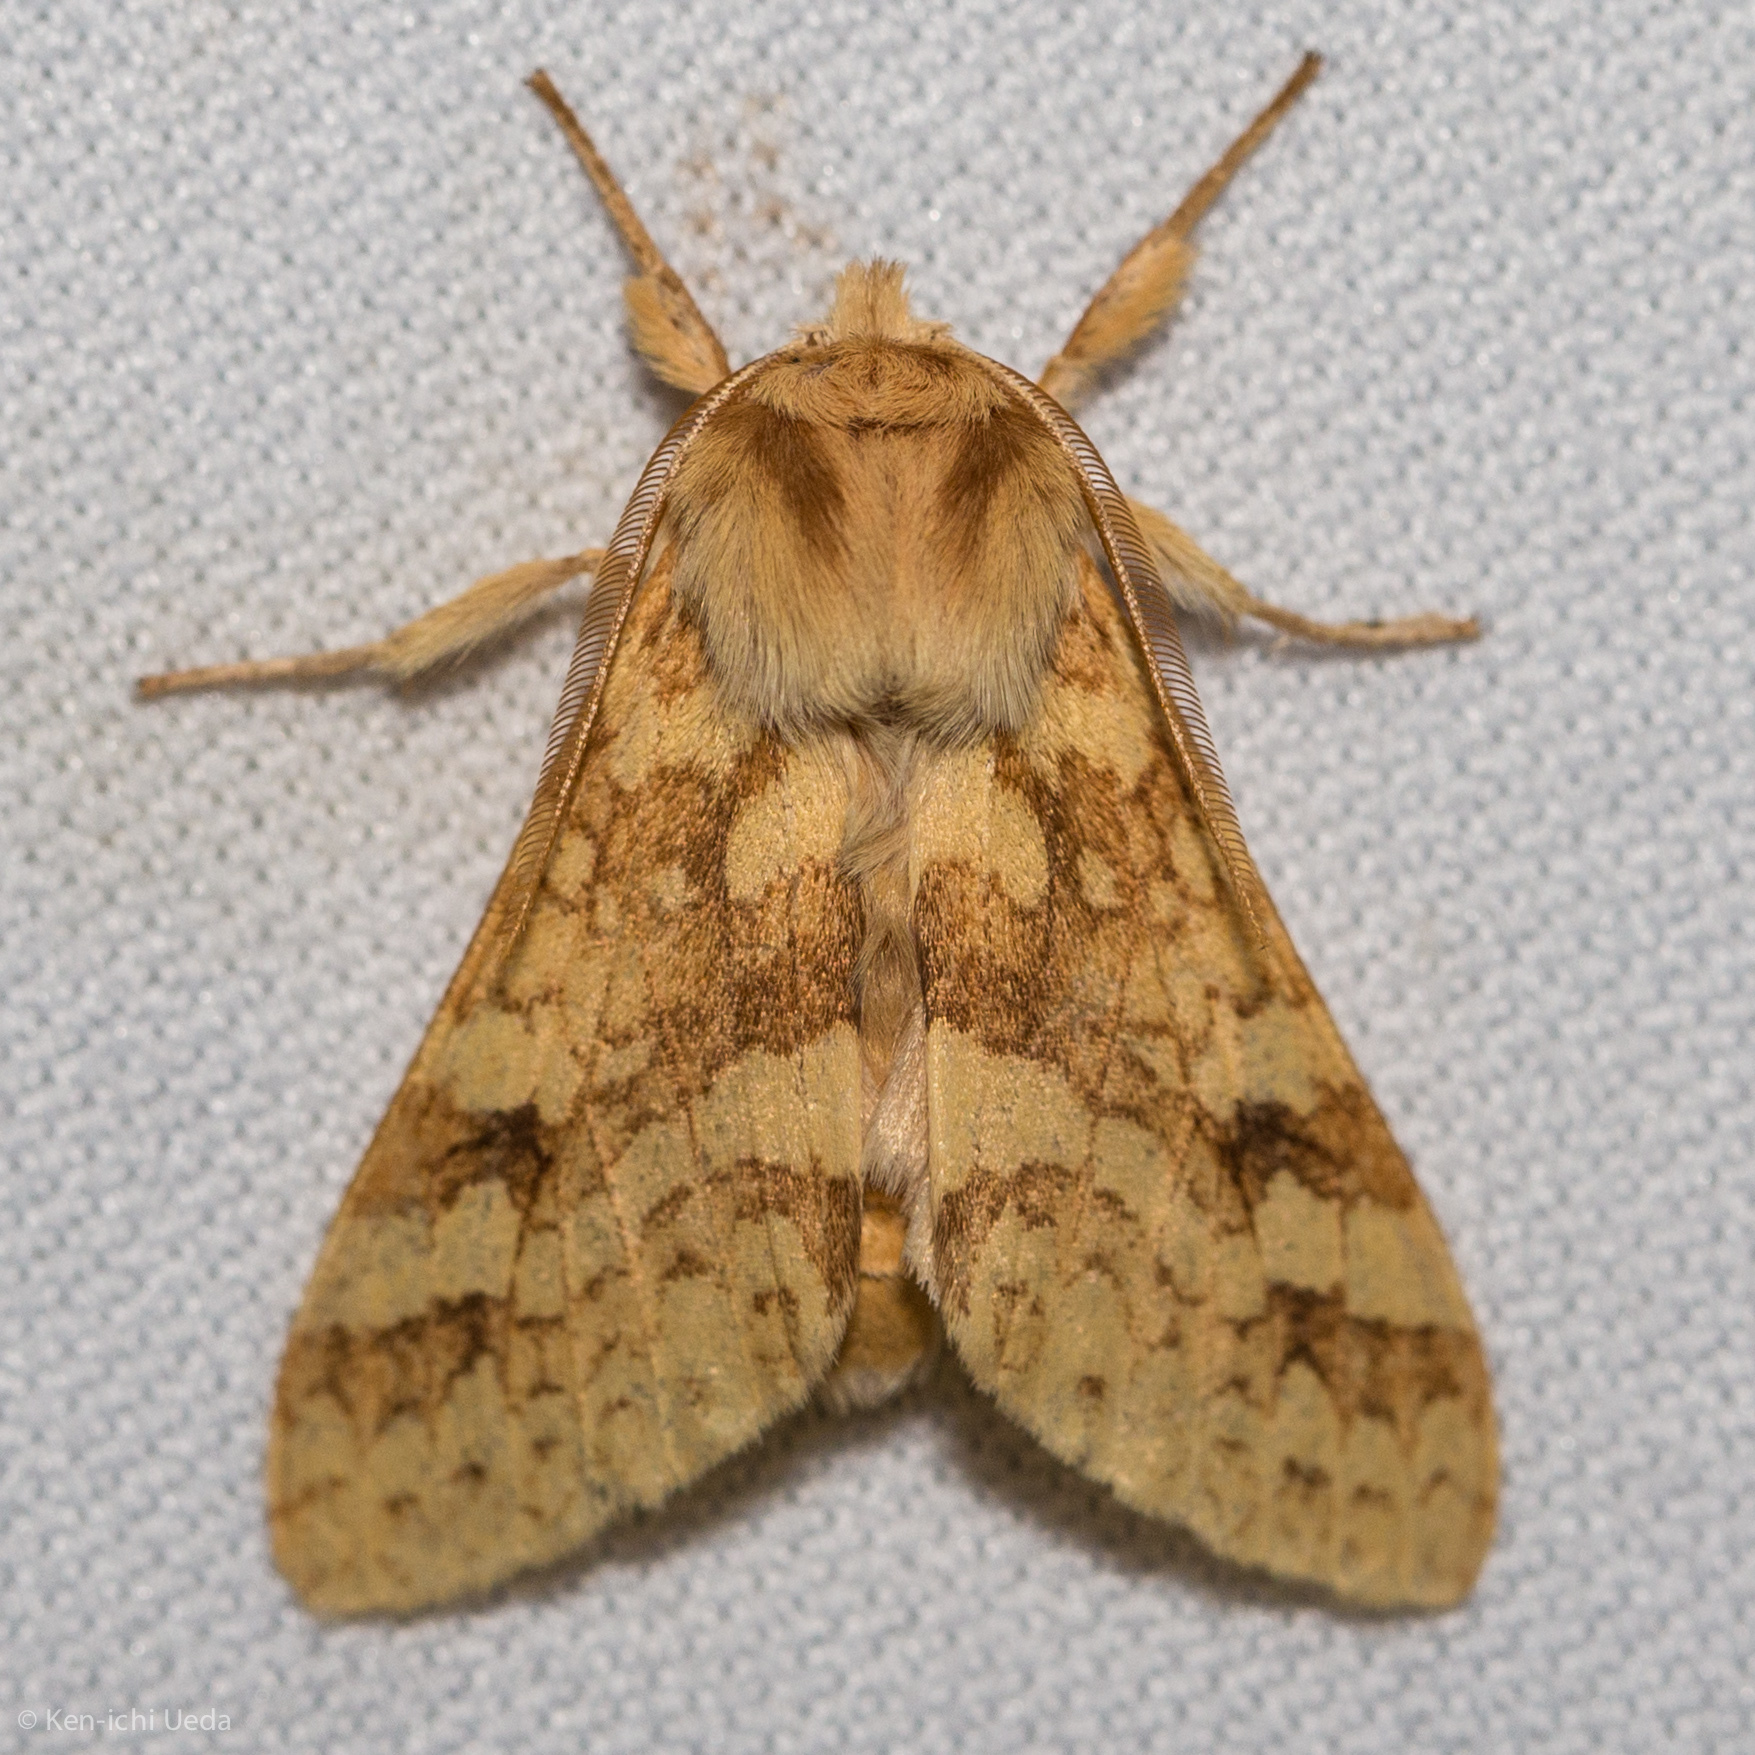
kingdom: Animalia
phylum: Arthropoda
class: Insecta
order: Lepidoptera
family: Erebidae
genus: Lophocampa
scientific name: Lophocampa maculata
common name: Spotted tussock moth
